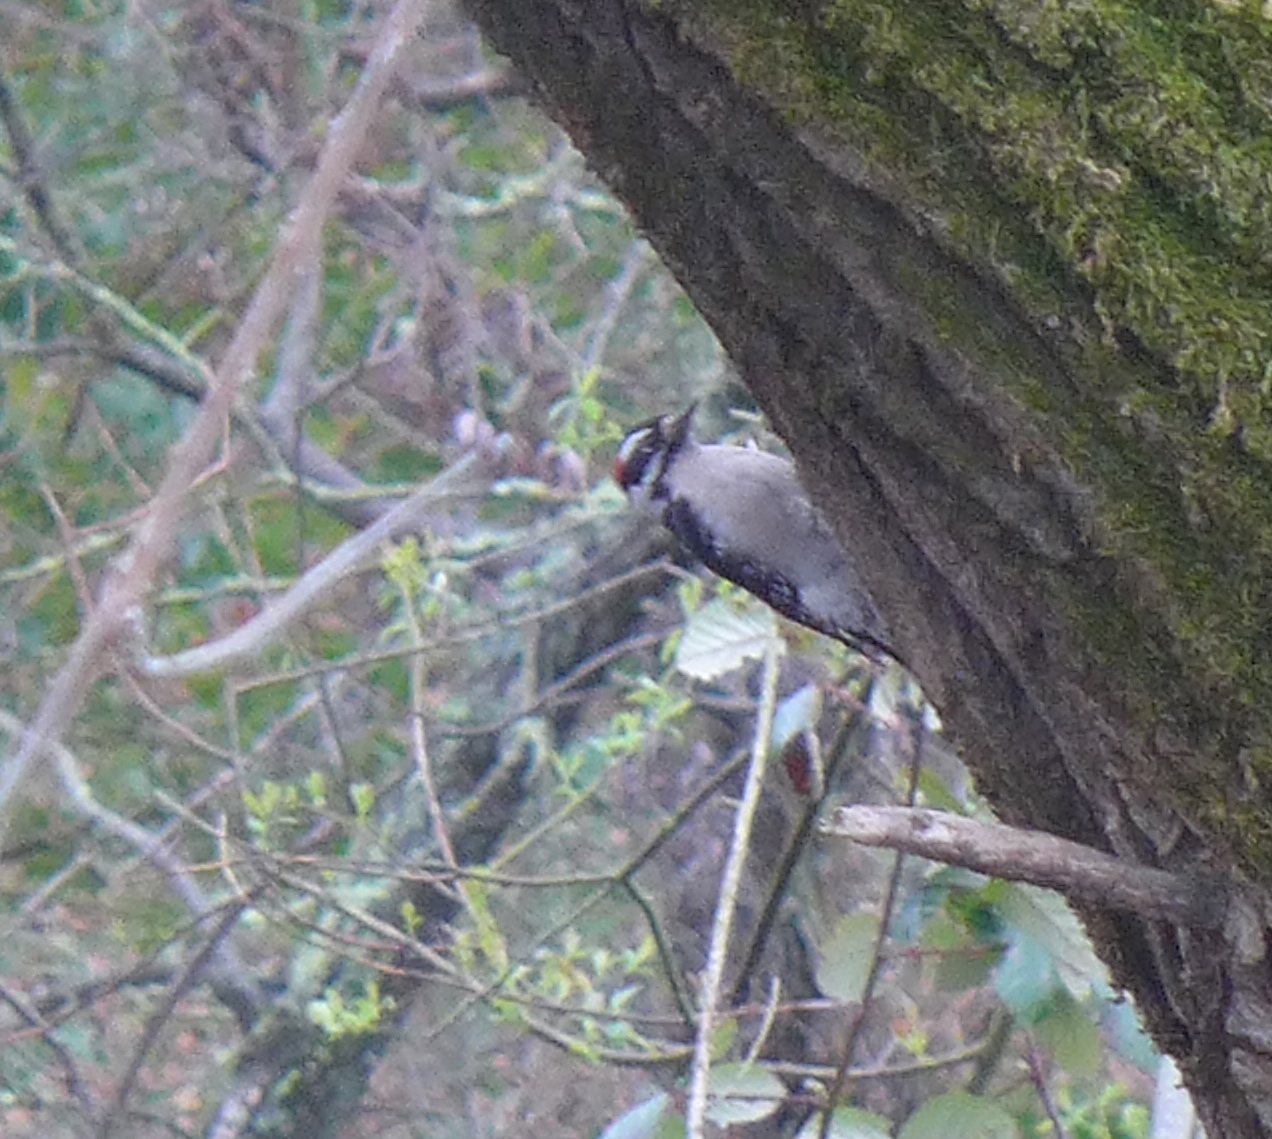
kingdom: Animalia
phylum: Chordata
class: Aves
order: Piciformes
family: Picidae
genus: Dryobates
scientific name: Dryobates pubescens
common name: Downy woodpecker
